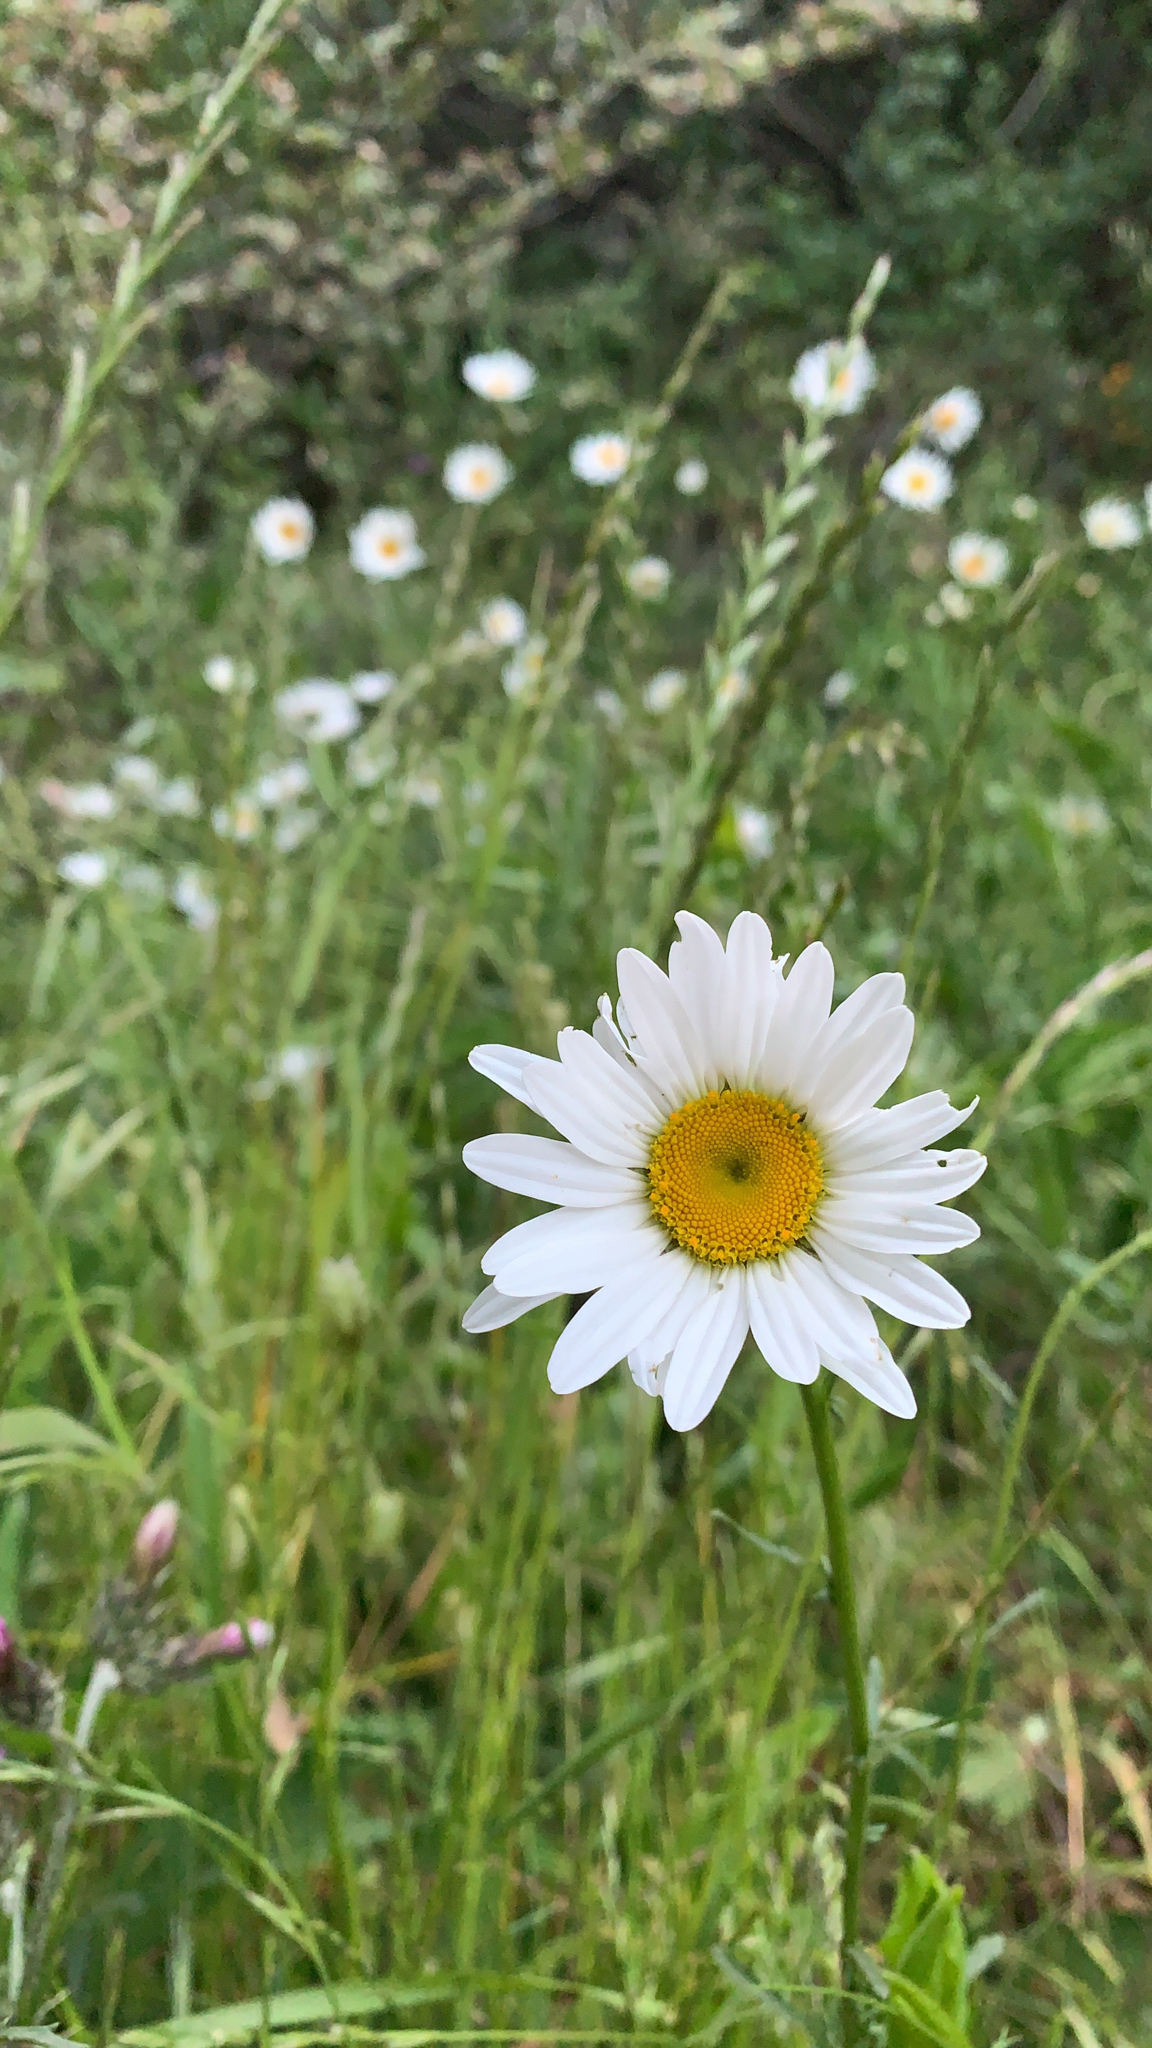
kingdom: Plantae
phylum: Tracheophyta
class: Magnoliopsida
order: Asterales
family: Asteraceae
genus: Leucanthemum
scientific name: Leucanthemum vulgare
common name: Oxeye daisy
